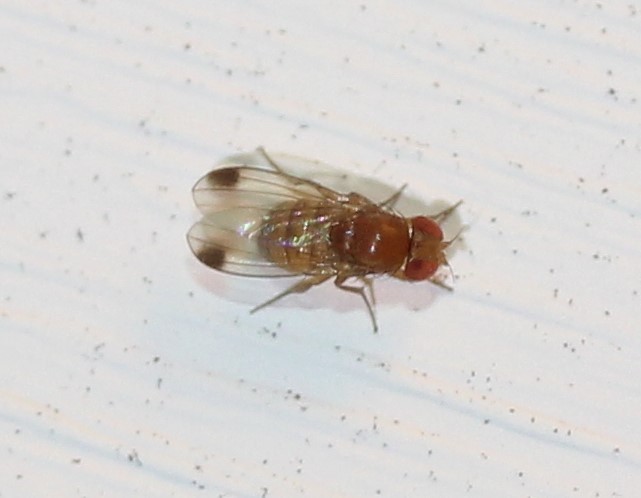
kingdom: Animalia
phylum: Arthropoda
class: Insecta
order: Diptera
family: Drosophilidae
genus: Drosophila
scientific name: Drosophila suzukii
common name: Spotted-wing drosophila
